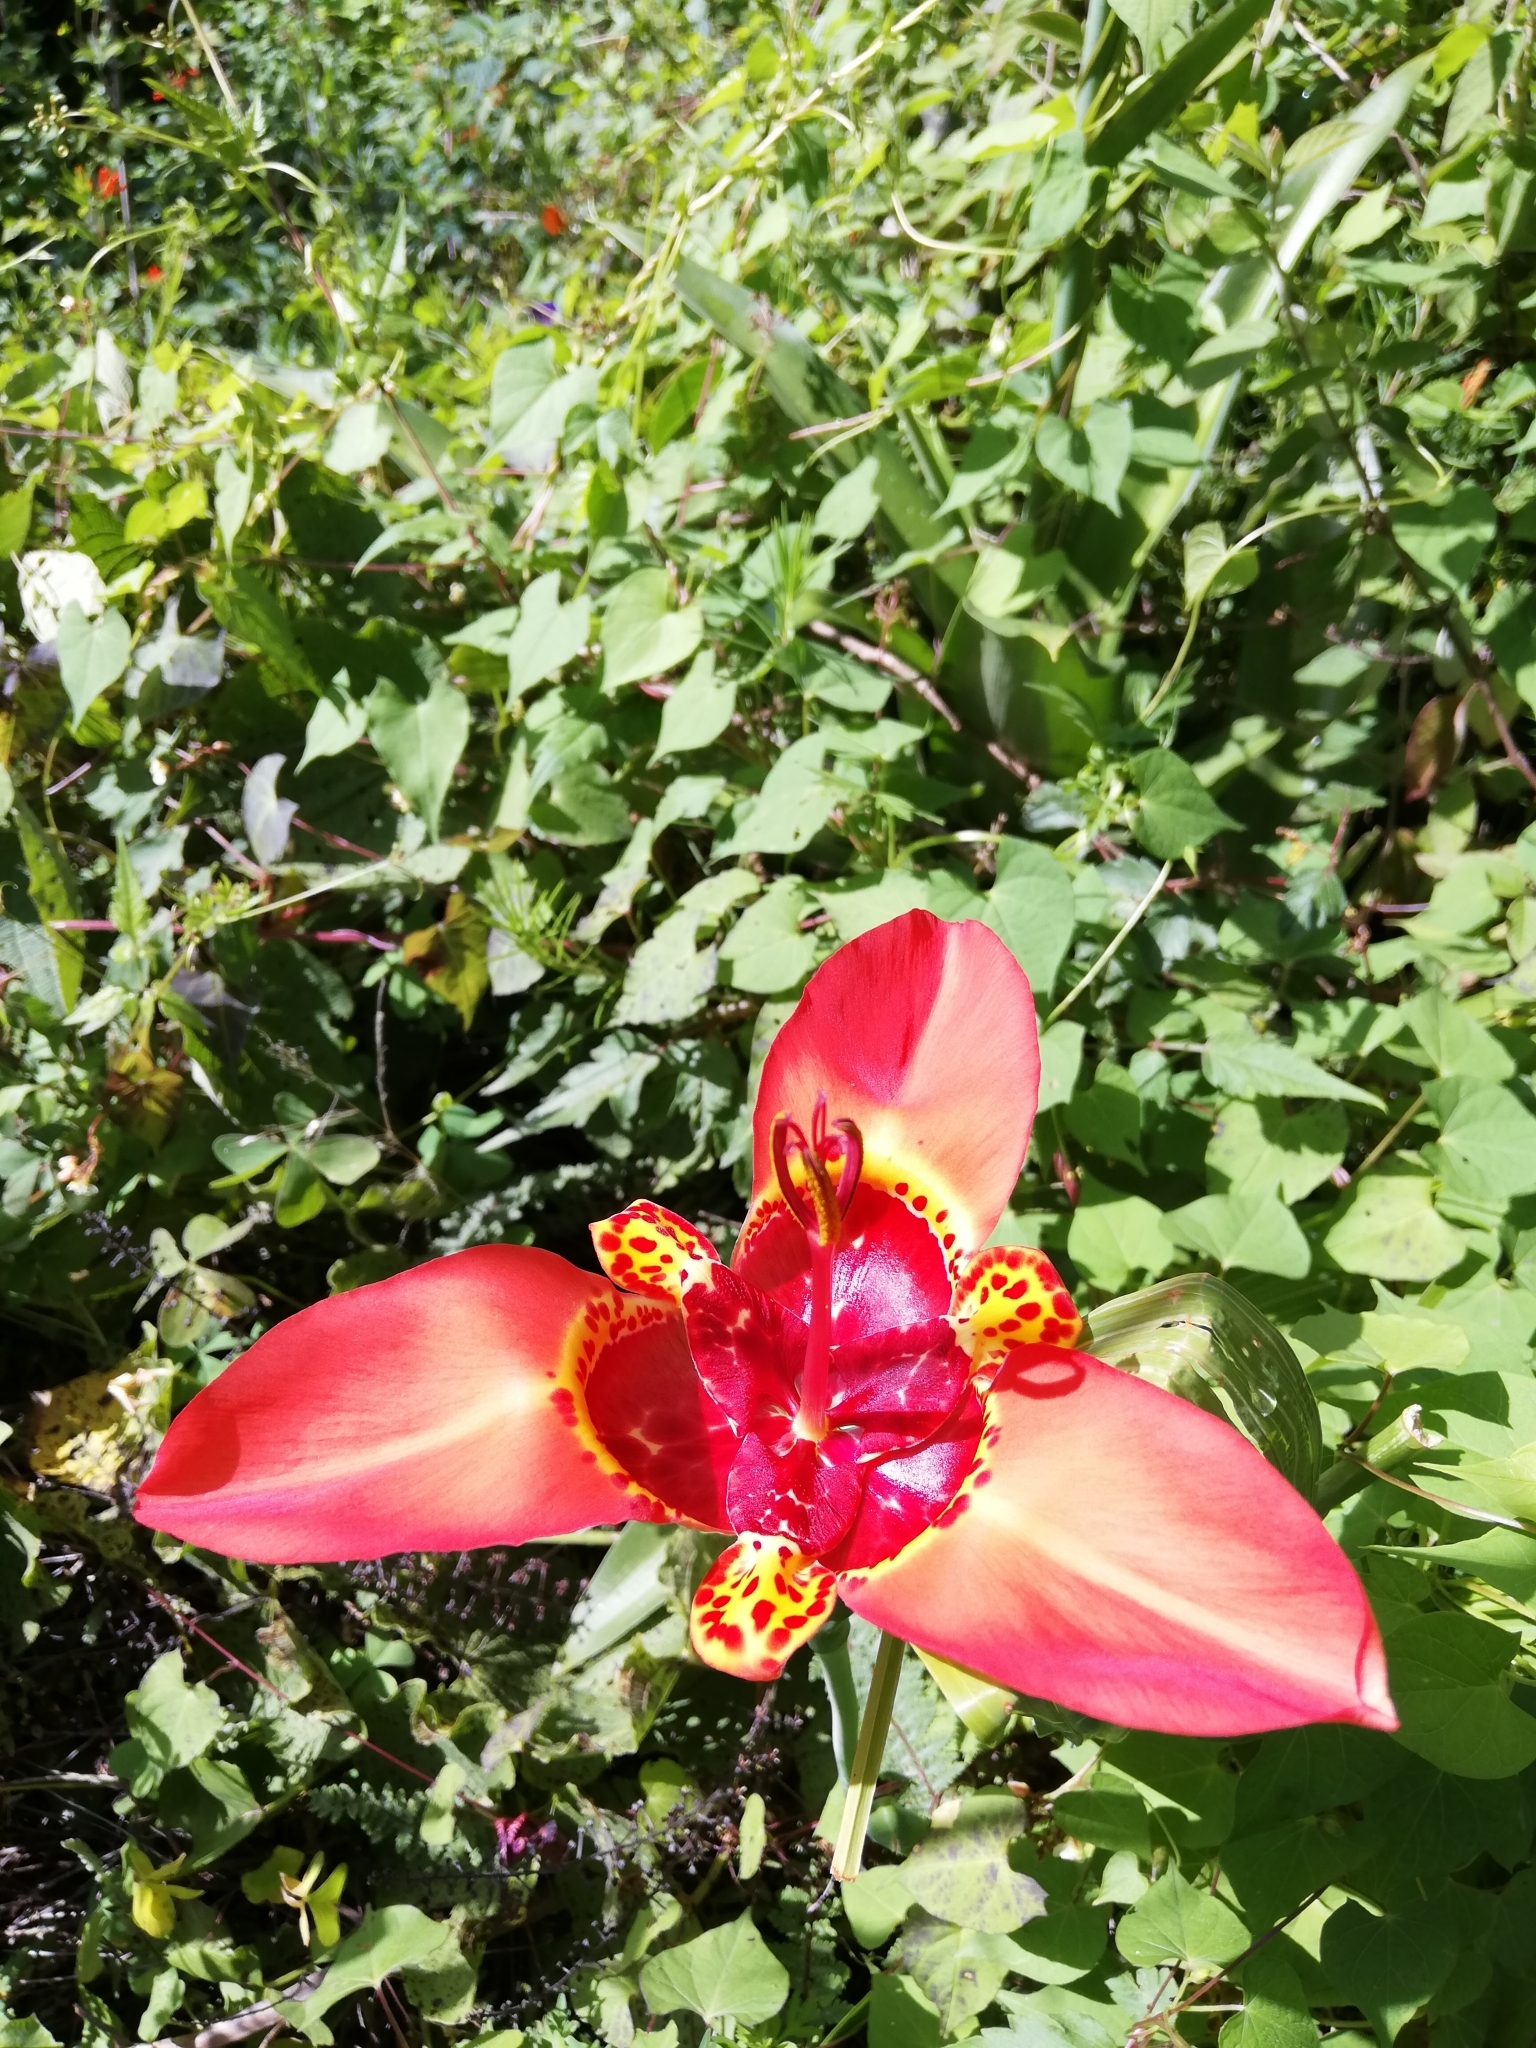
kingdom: Plantae
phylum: Tracheophyta
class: Liliopsida
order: Asparagales
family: Iridaceae
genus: Tigridia
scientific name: Tigridia pavonia
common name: Peacock-flower
